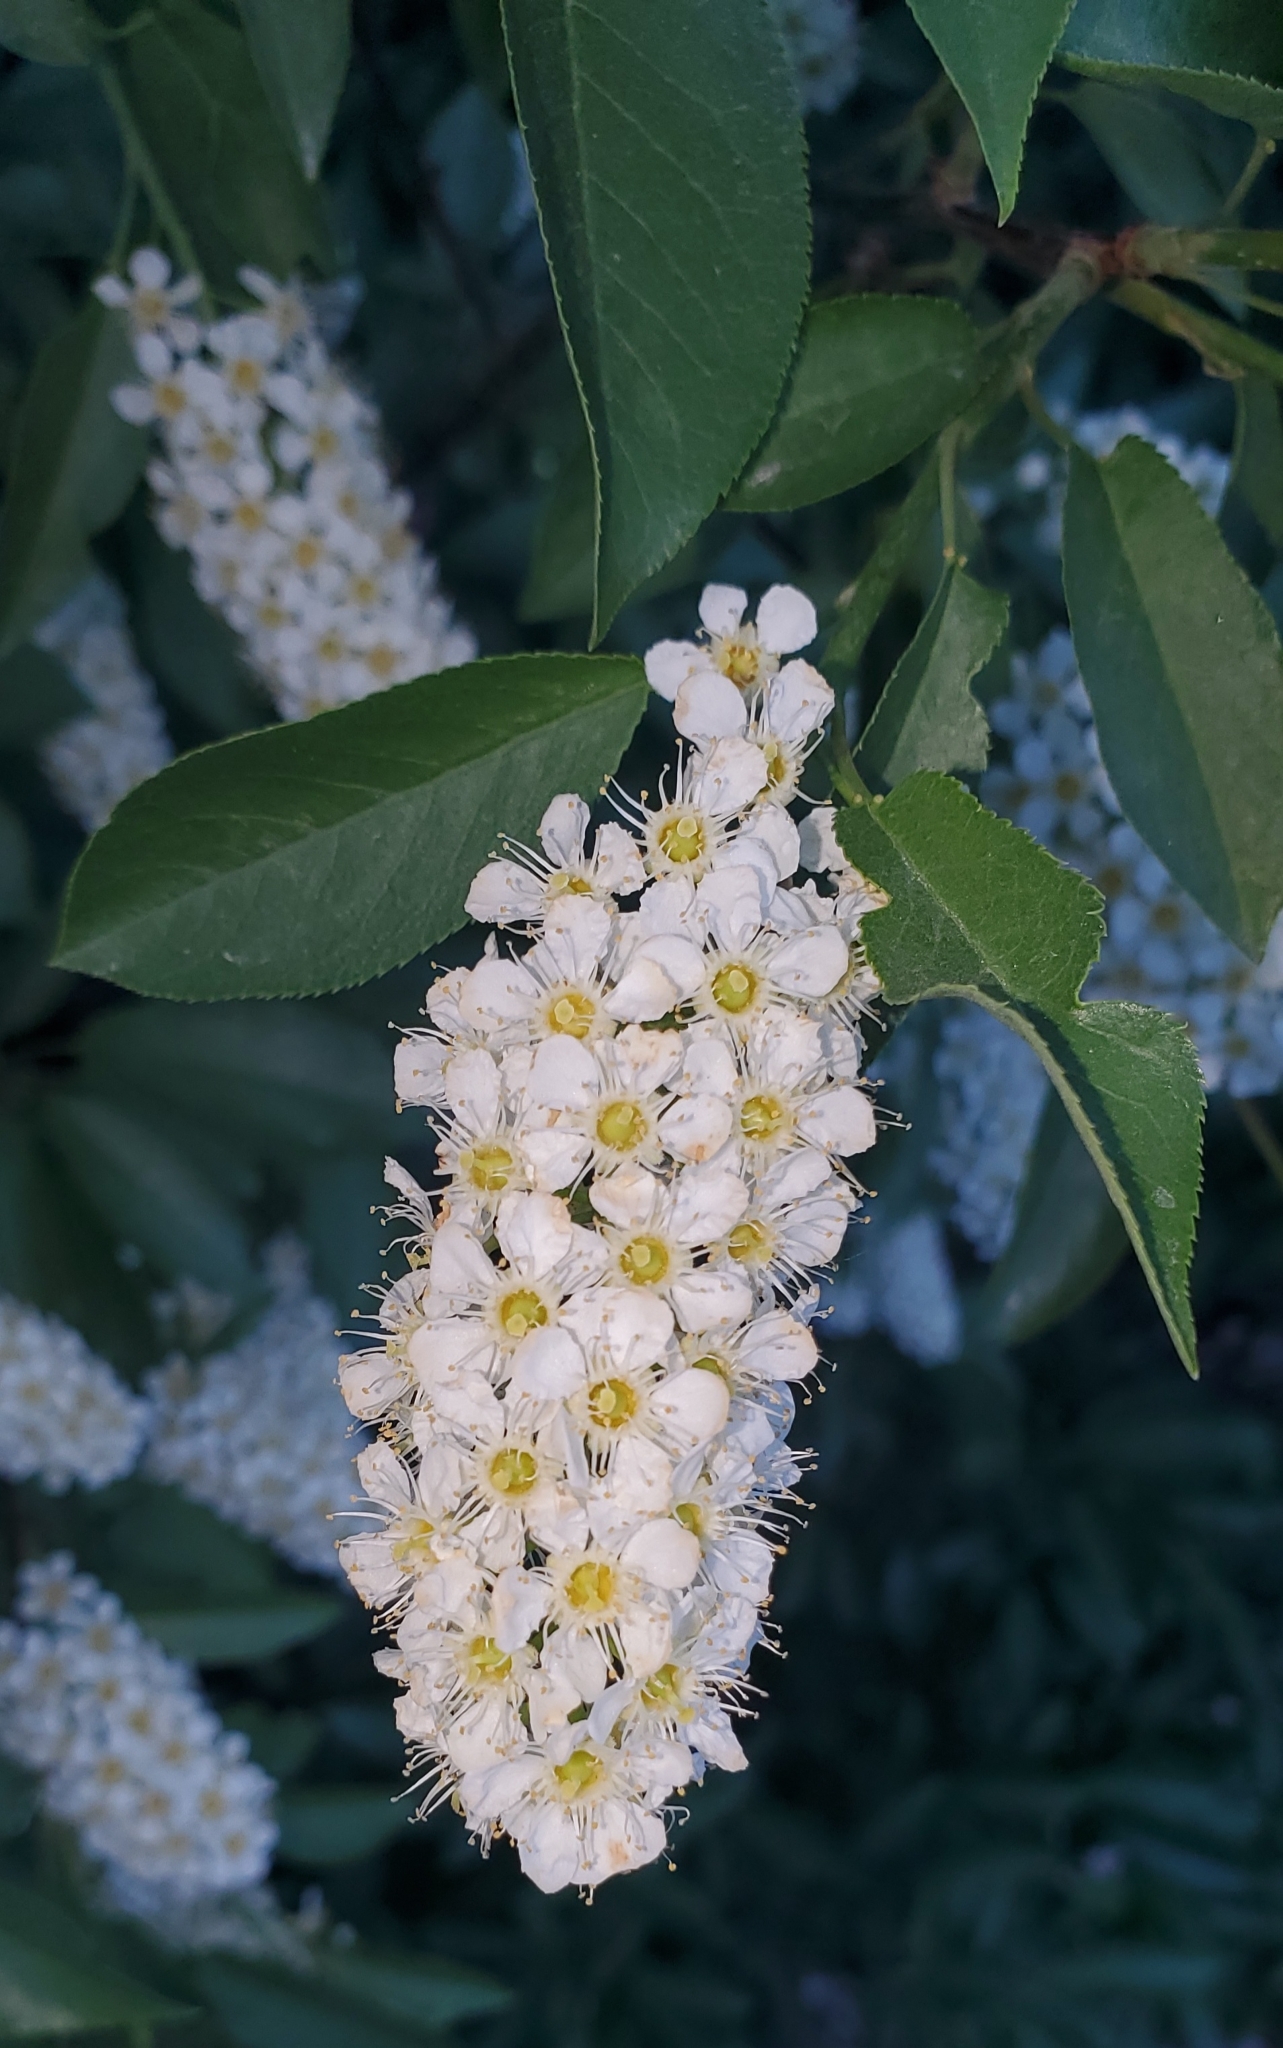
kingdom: Plantae
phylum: Tracheophyta
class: Magnoliopsida
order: Rosales
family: Rosaceae
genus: Prunus
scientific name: Prunus virginiana
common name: Chokecherry
